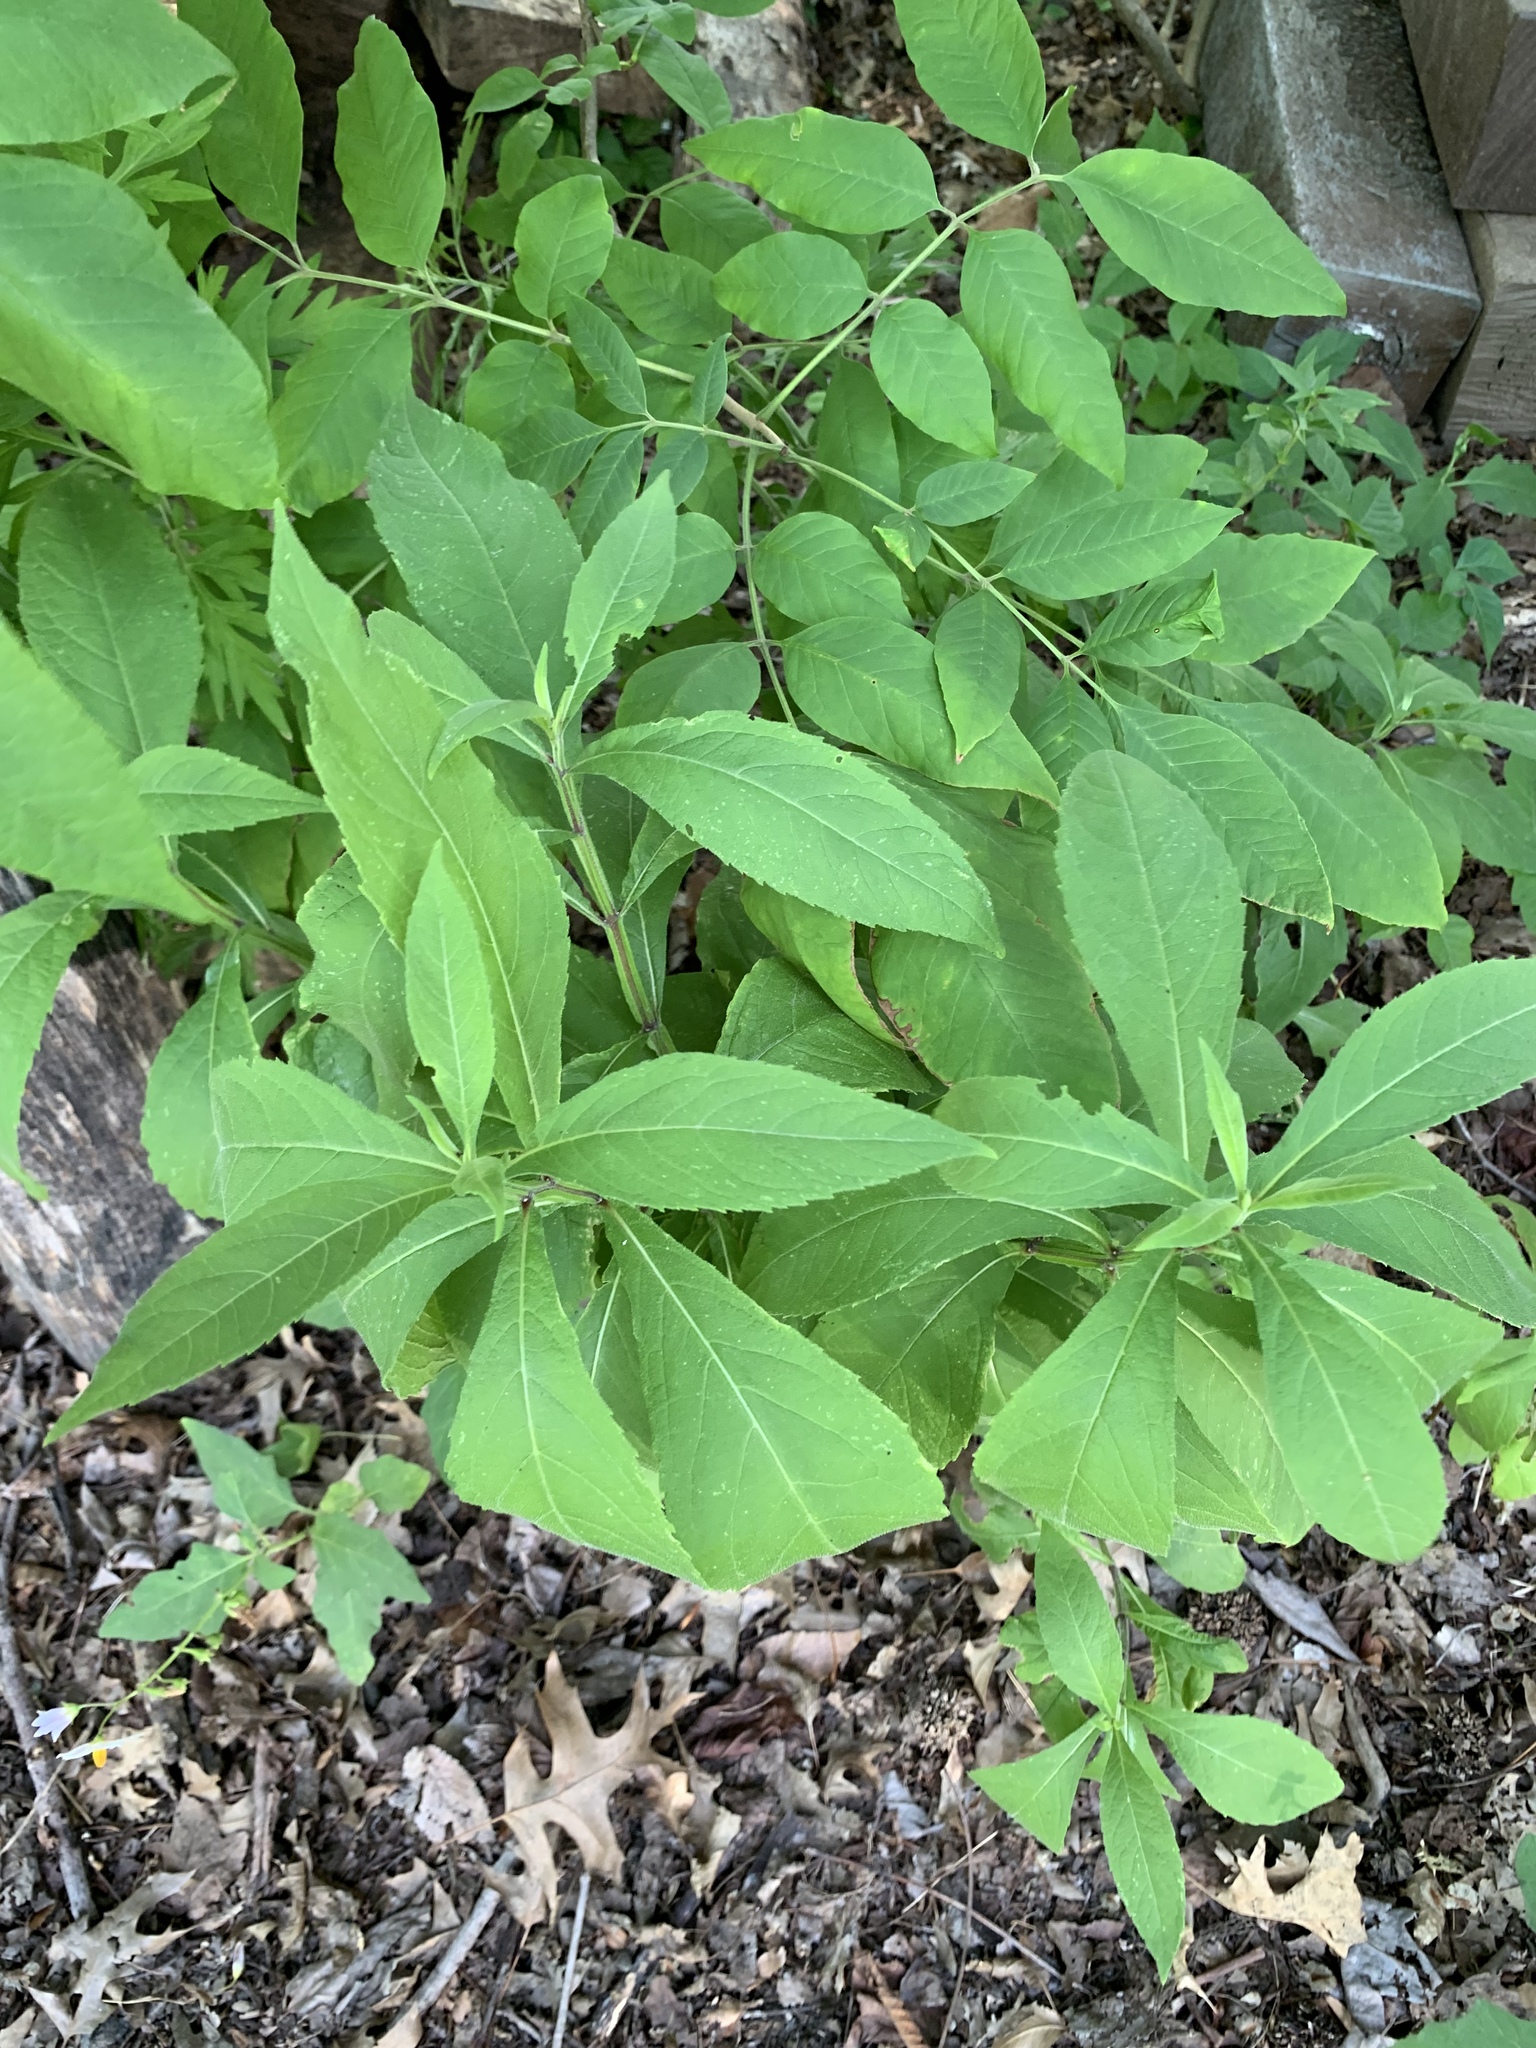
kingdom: Plantae
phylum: Tracheophyta
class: Magnoliopsida
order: Asterales
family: Asteraceae
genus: Verbesina
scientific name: Verbesina alternifolia
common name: Wingstem
